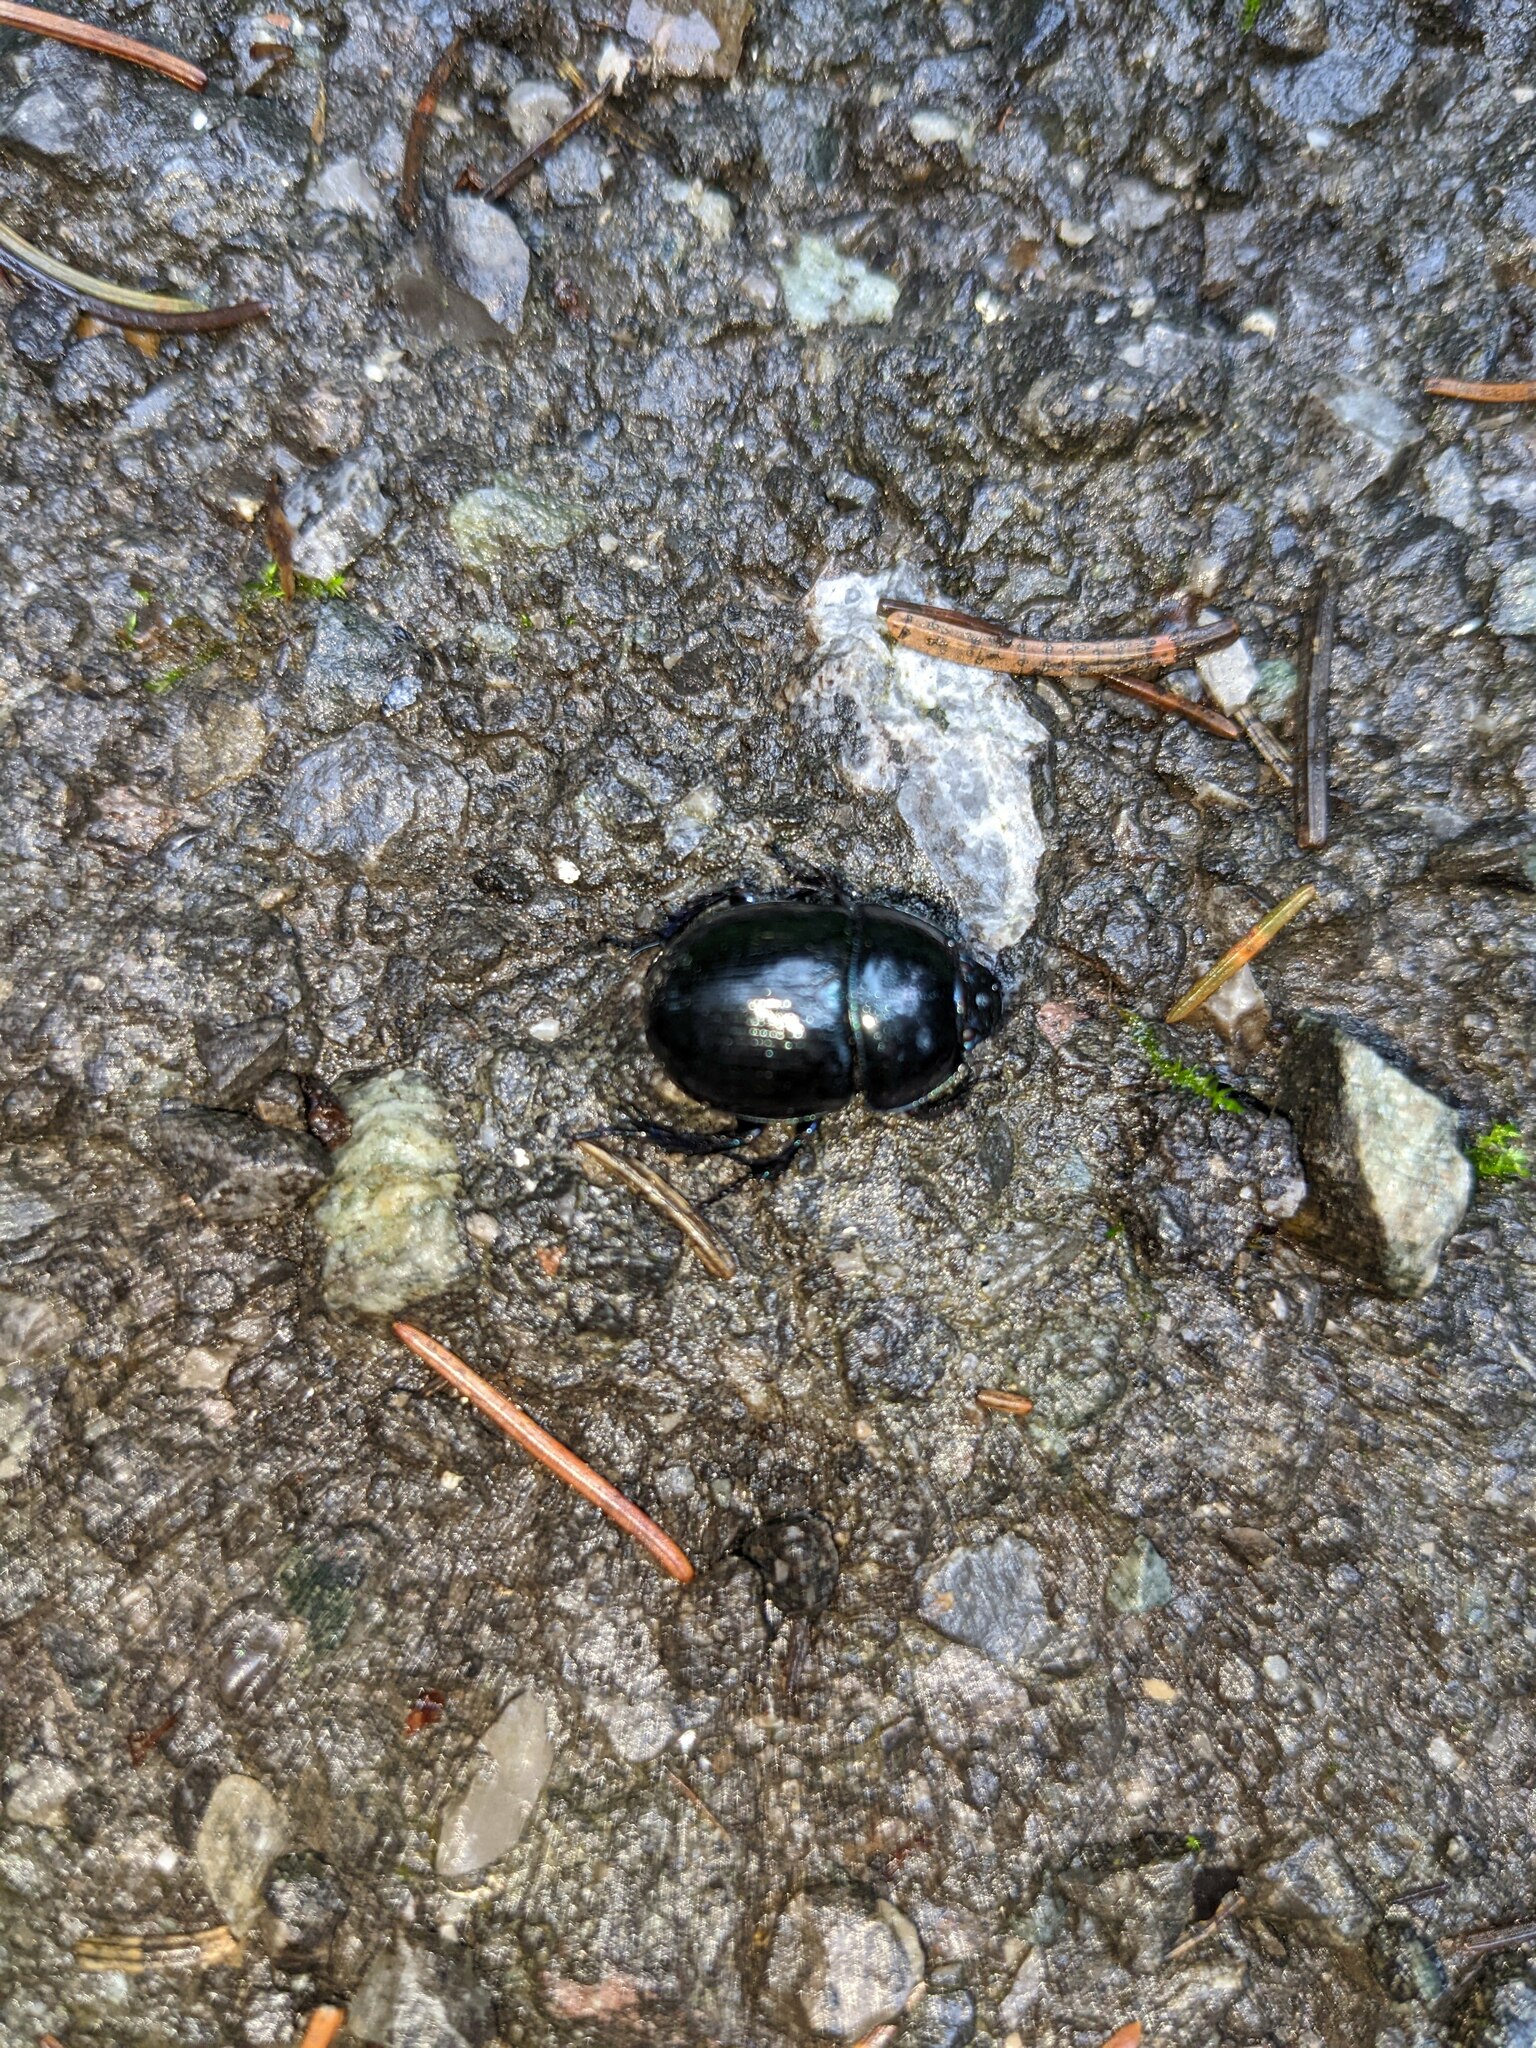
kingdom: Animalia
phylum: Arthropoda
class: Insecta
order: Coleoptera
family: Geotrupidae
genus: Anoplotrupes
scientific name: Anoplotrupes stercorosus
